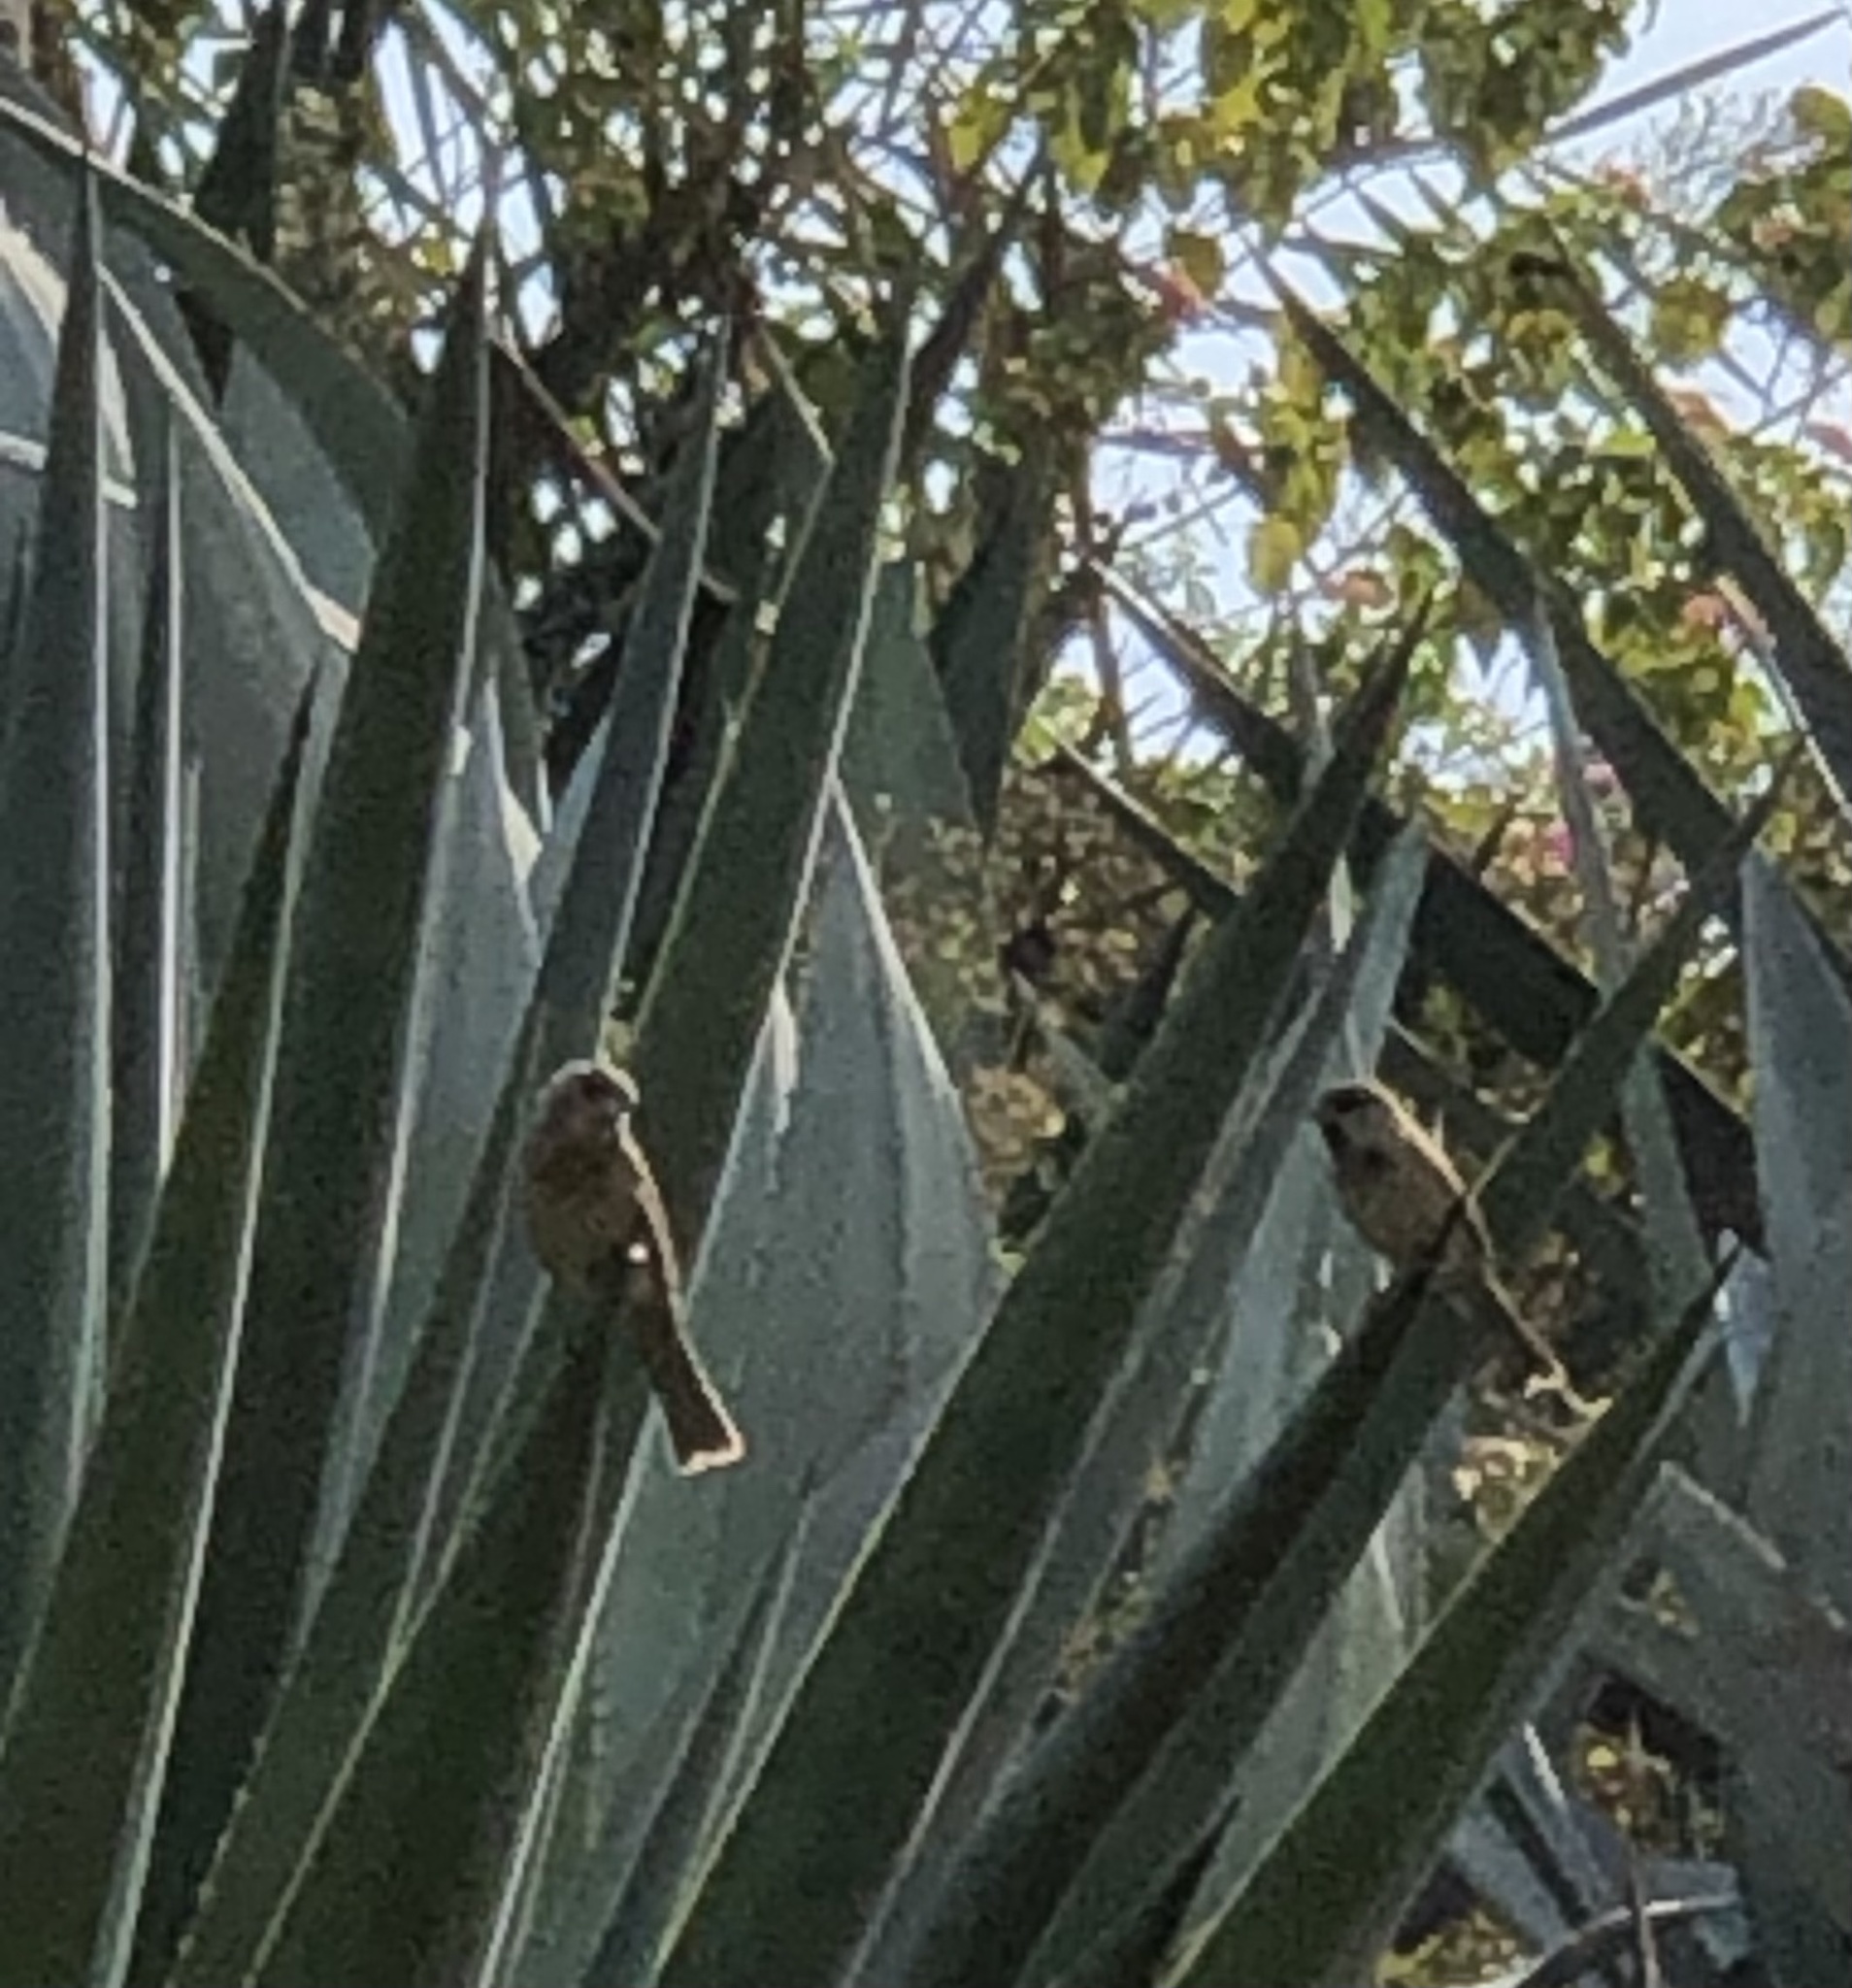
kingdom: Animalia
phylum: Chordata
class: Aves
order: Passeriformes
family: Passeridae
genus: Passer
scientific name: Passer domesticus
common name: House sparrow
